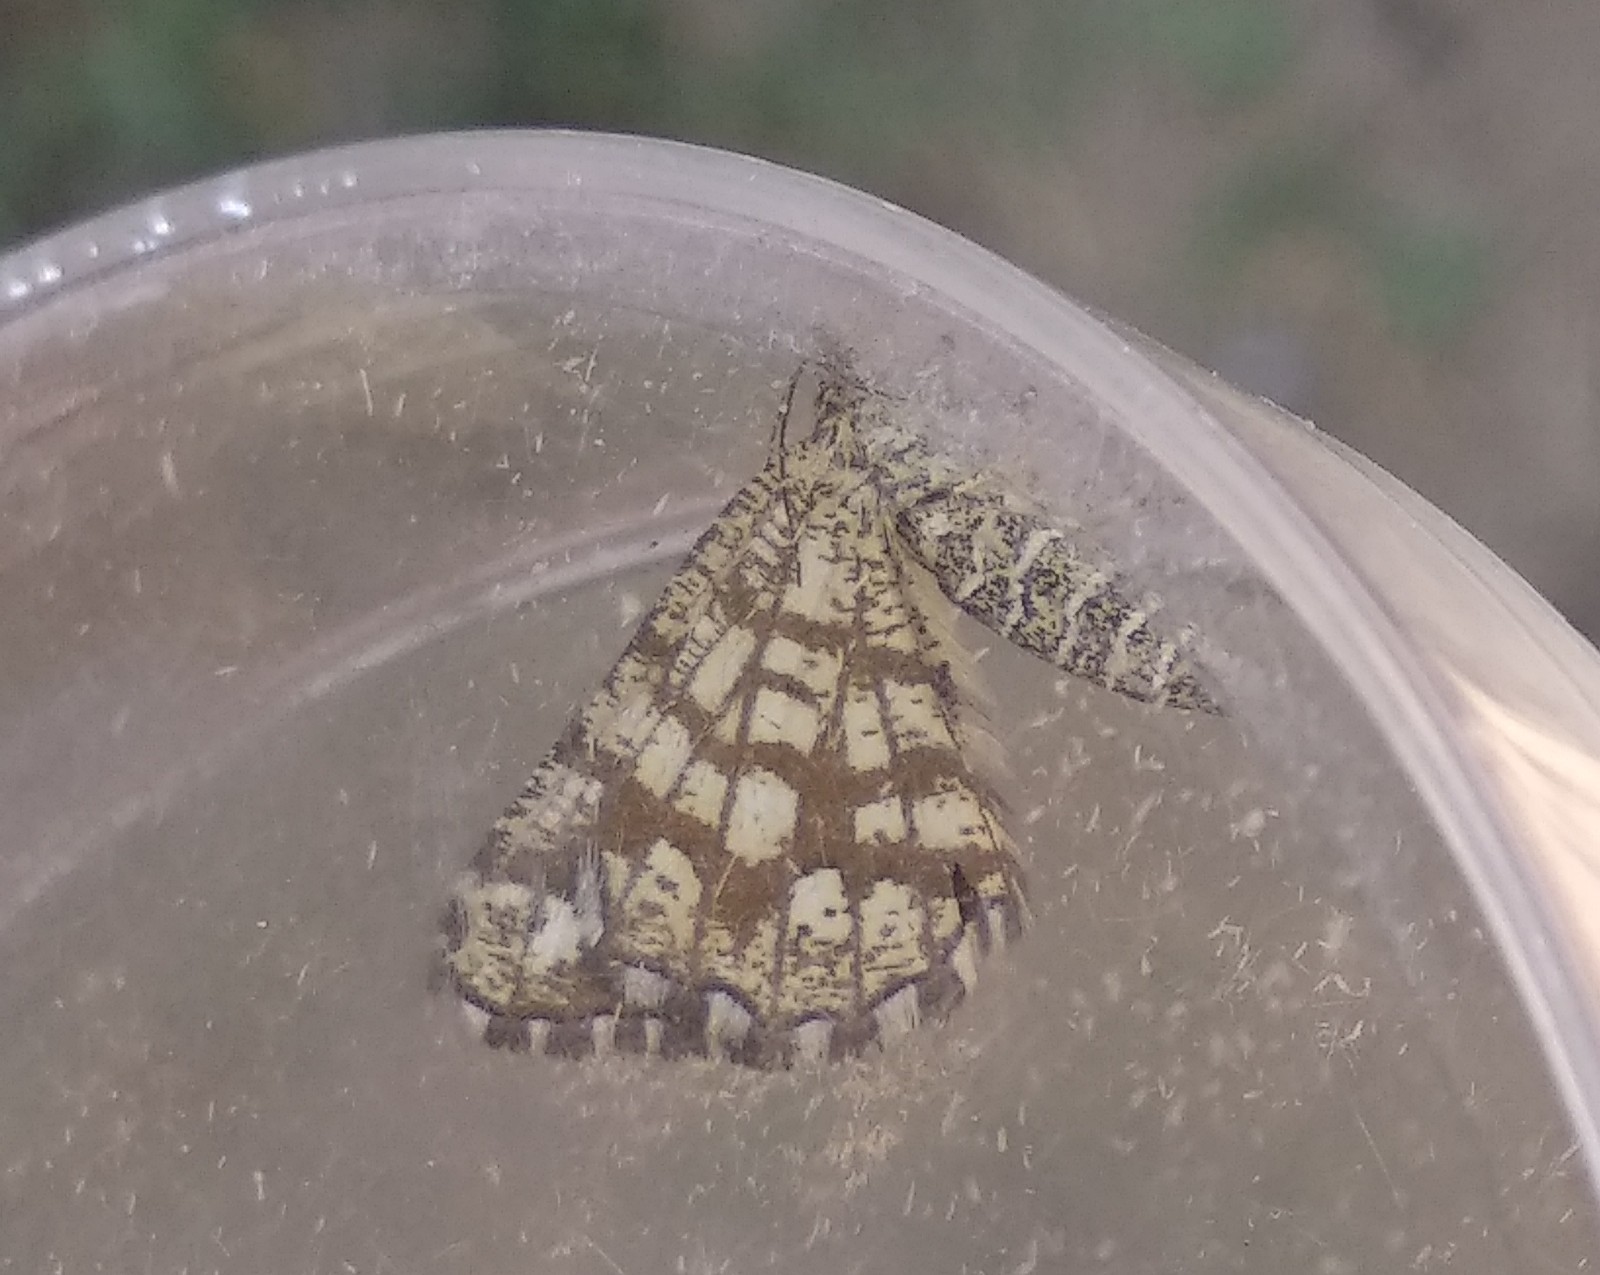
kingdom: Animalia
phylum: Arthropoda
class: Insecta
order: Lepidoptera
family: Geometridae
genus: Chiasmia
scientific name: Chiasmia clathrata
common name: Latticed heath
